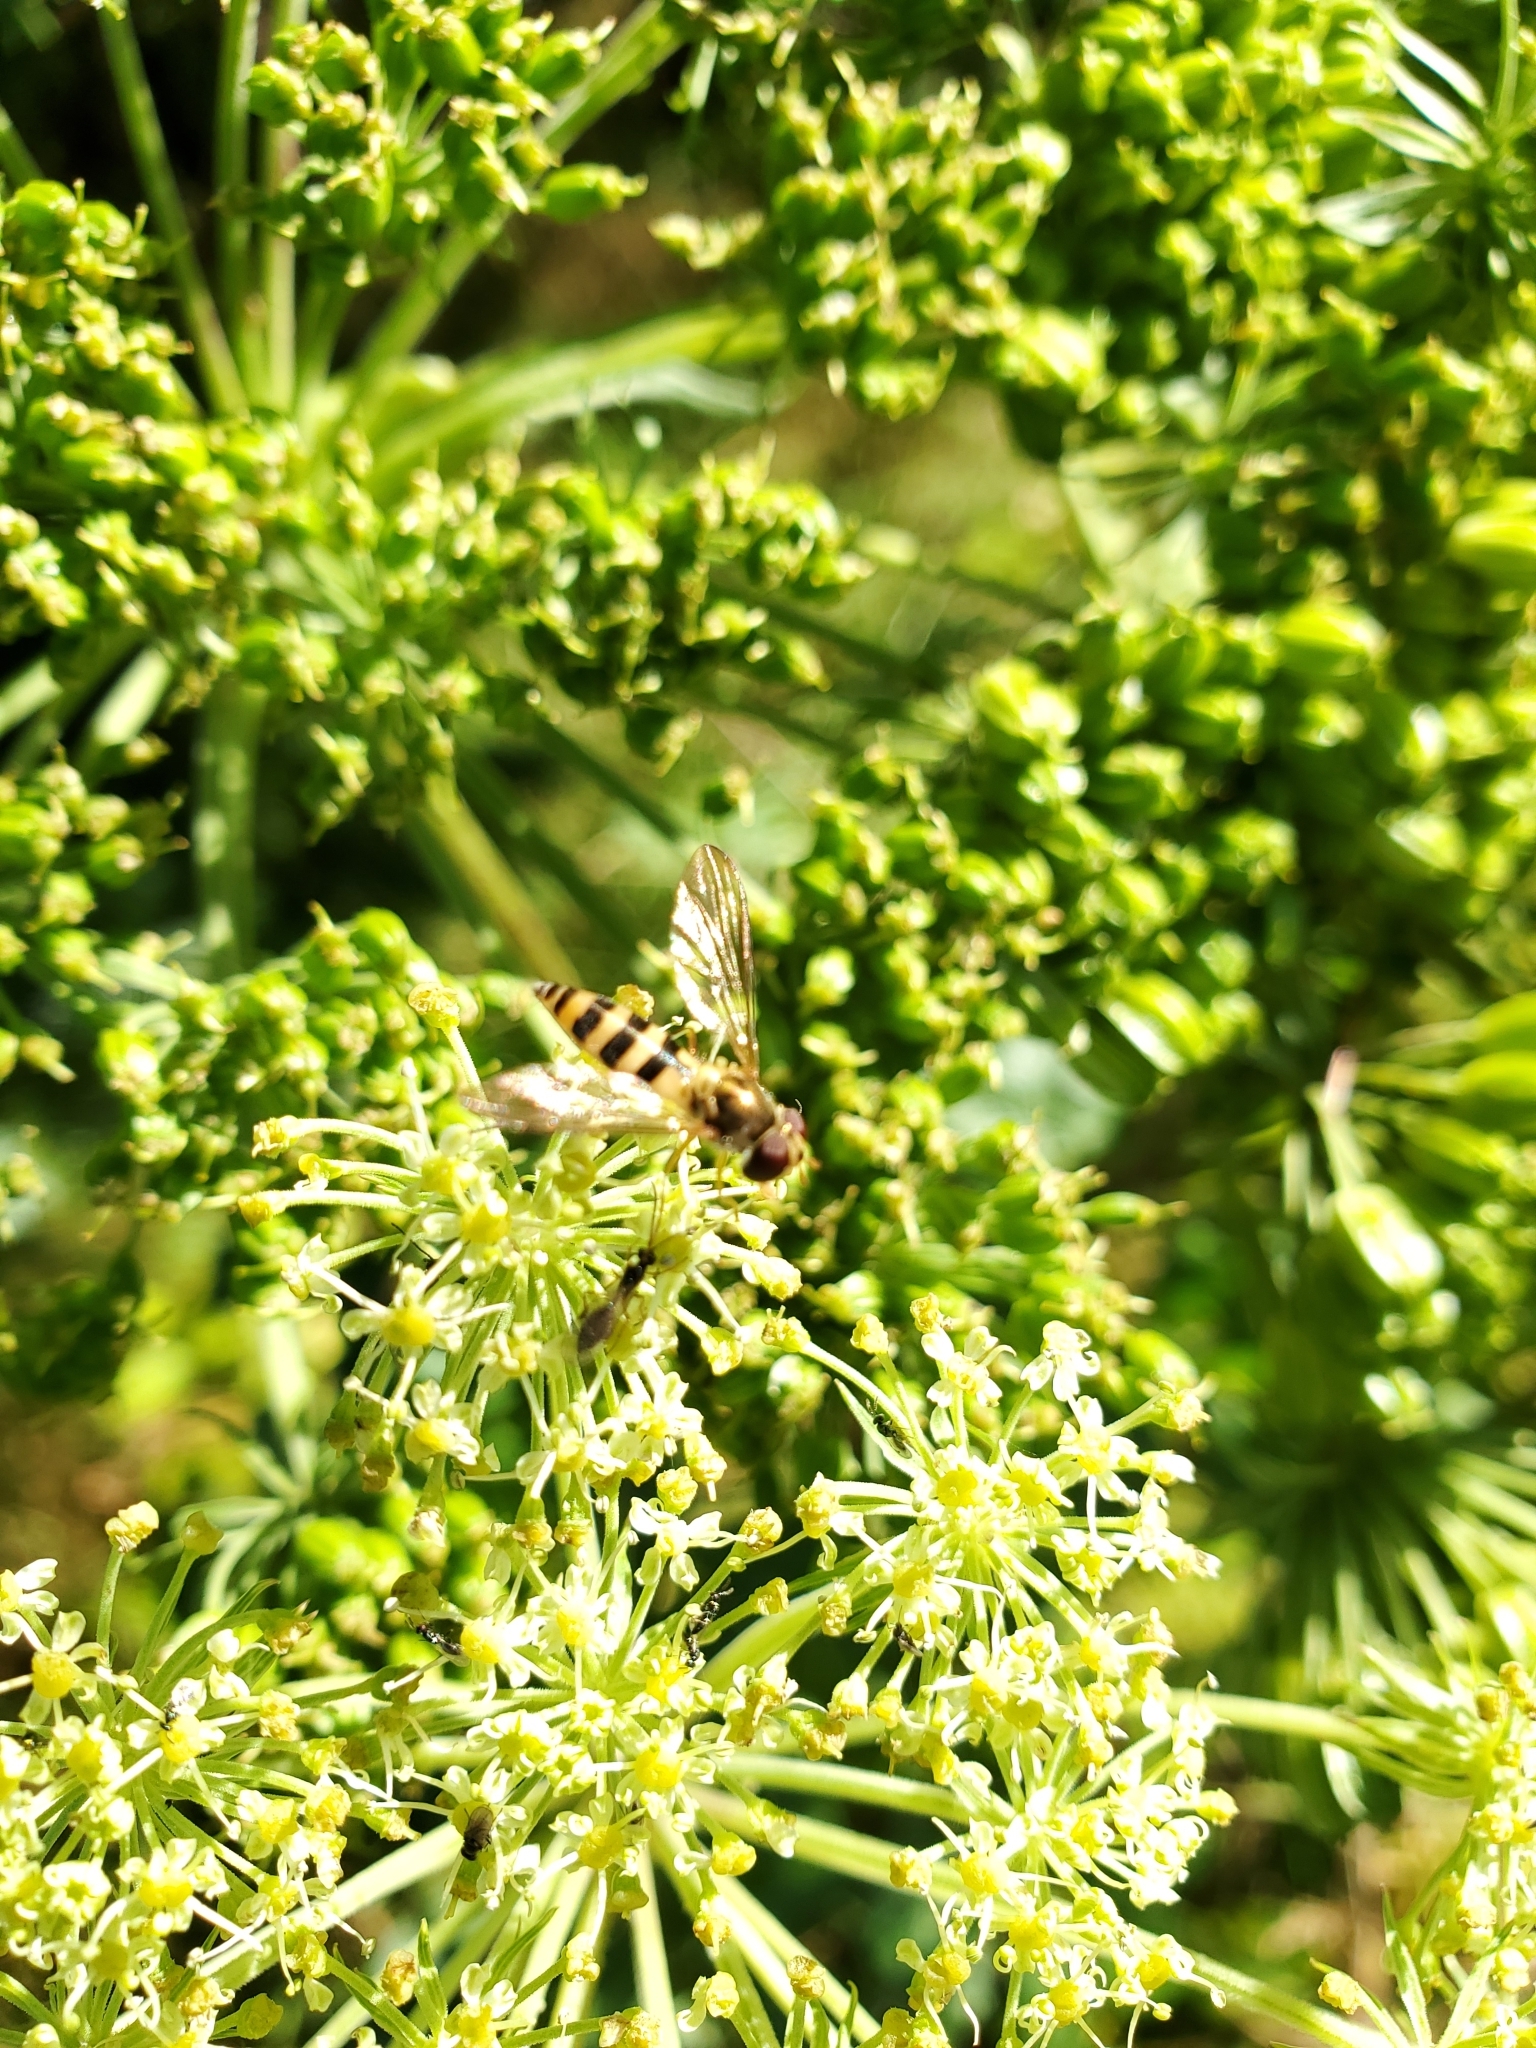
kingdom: Animalia
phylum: Arthropoda
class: Insecta
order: Diptera
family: Syrphidae
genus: Meliscaeva
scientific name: Meliscaeva cinctella
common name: American thintail fly
